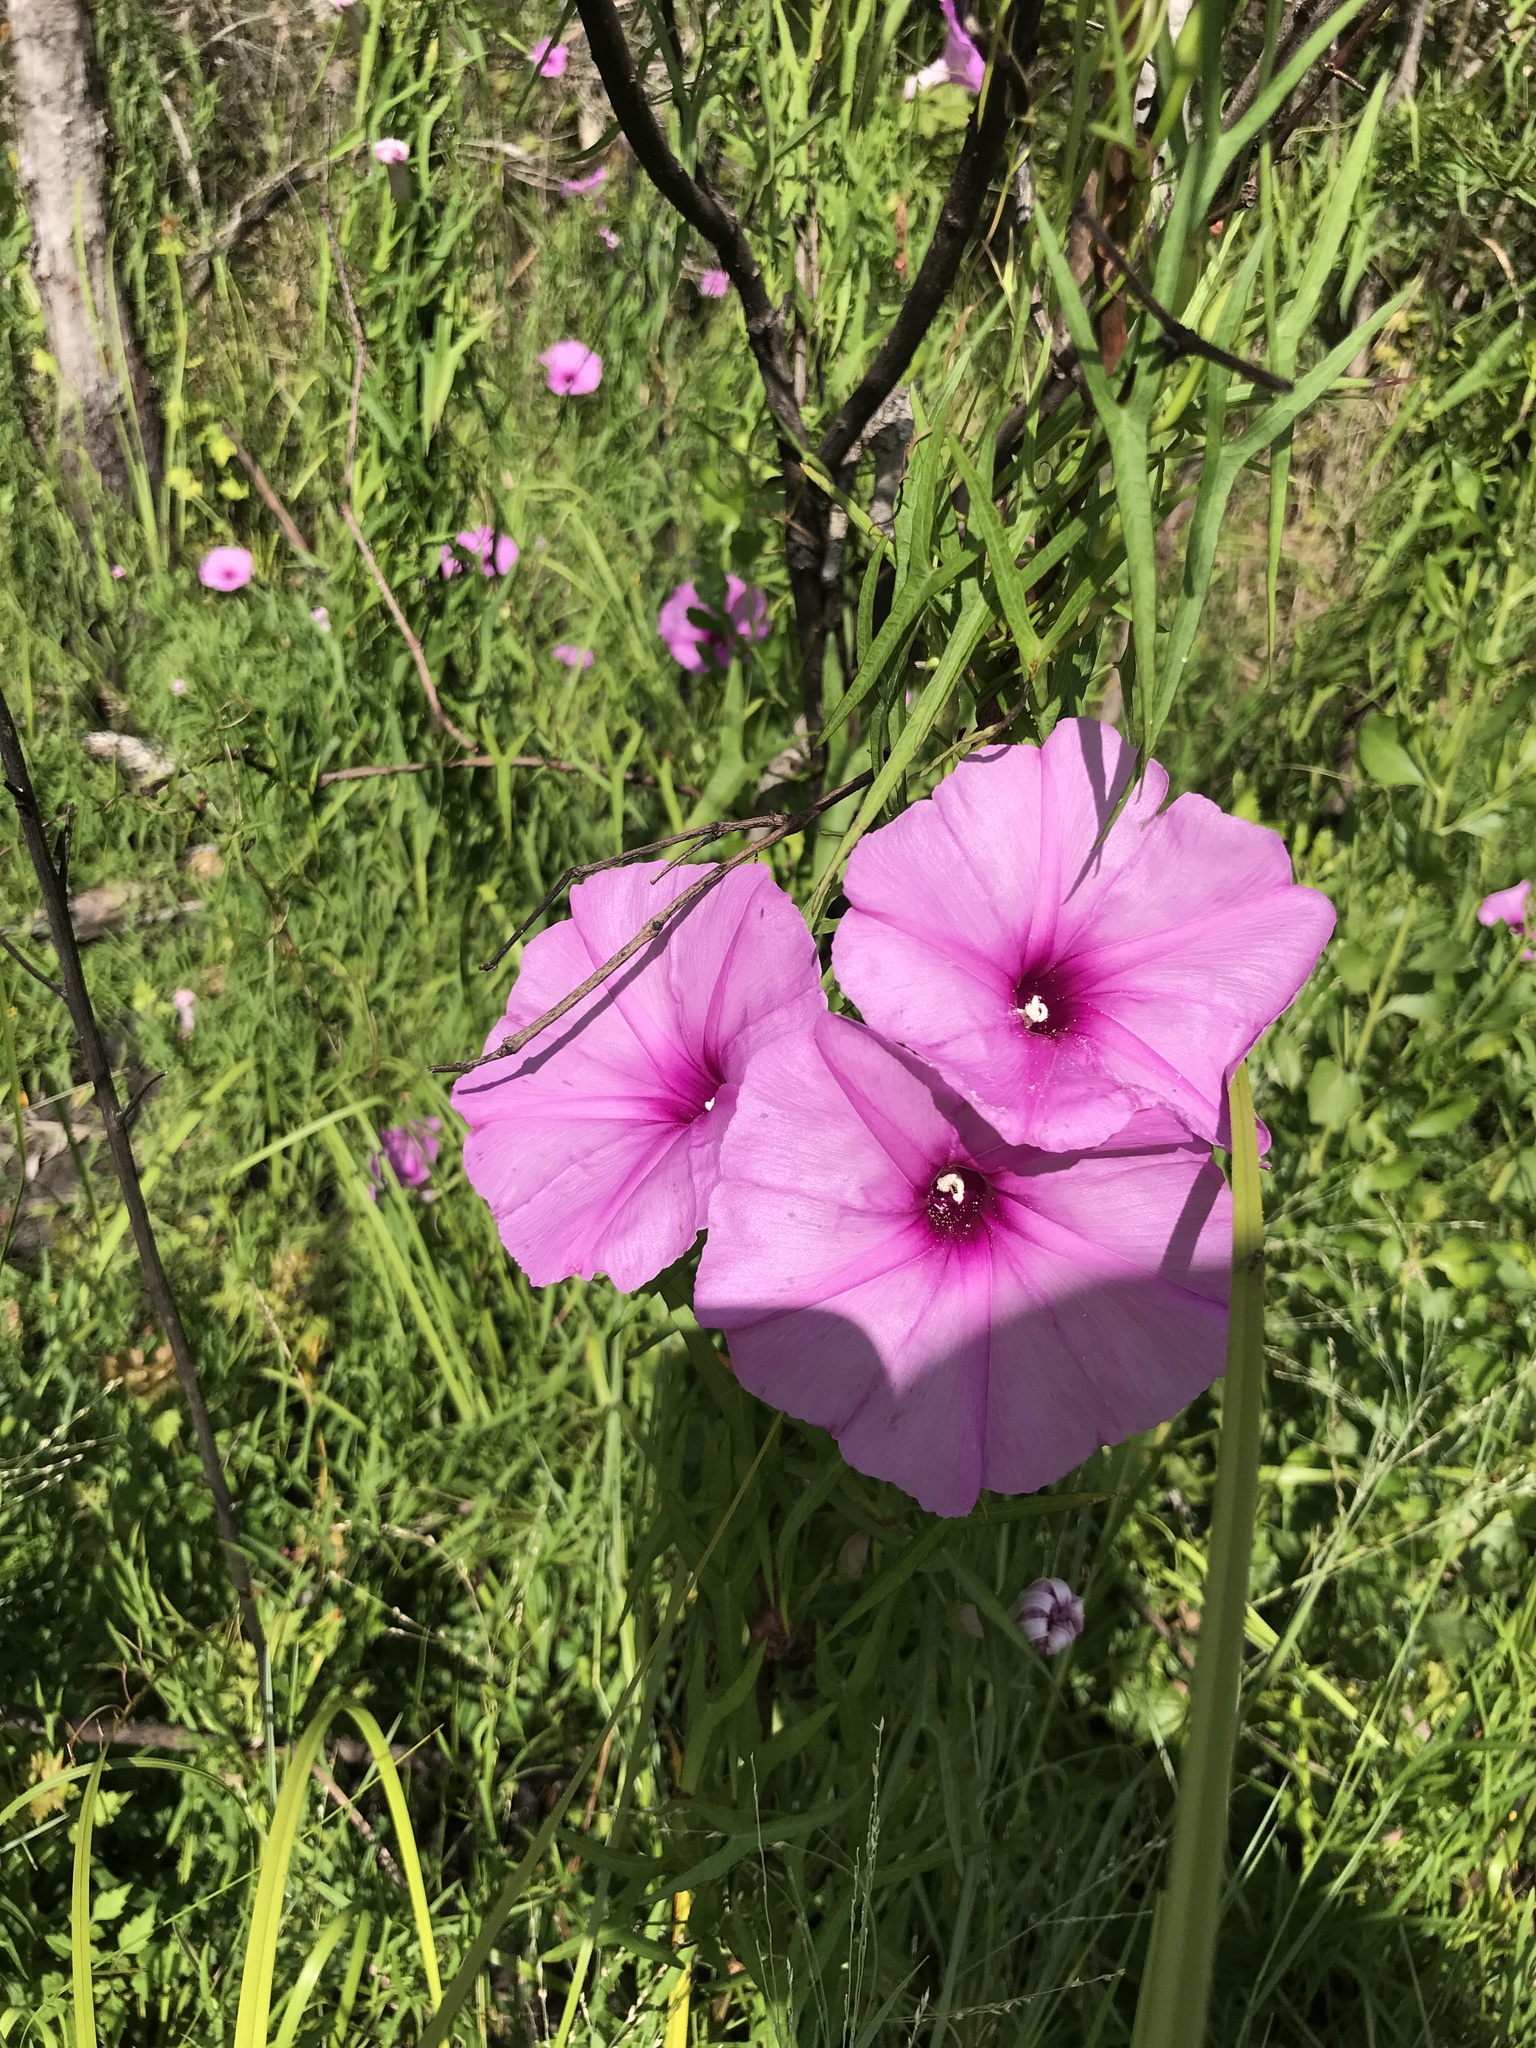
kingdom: Plantae
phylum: Tracheophyta
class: Magnoliopsida
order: Solanales
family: Convolvulaceae
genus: Ipomoea
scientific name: Ipomoea sagittata
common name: Saltmarsh morning glory
